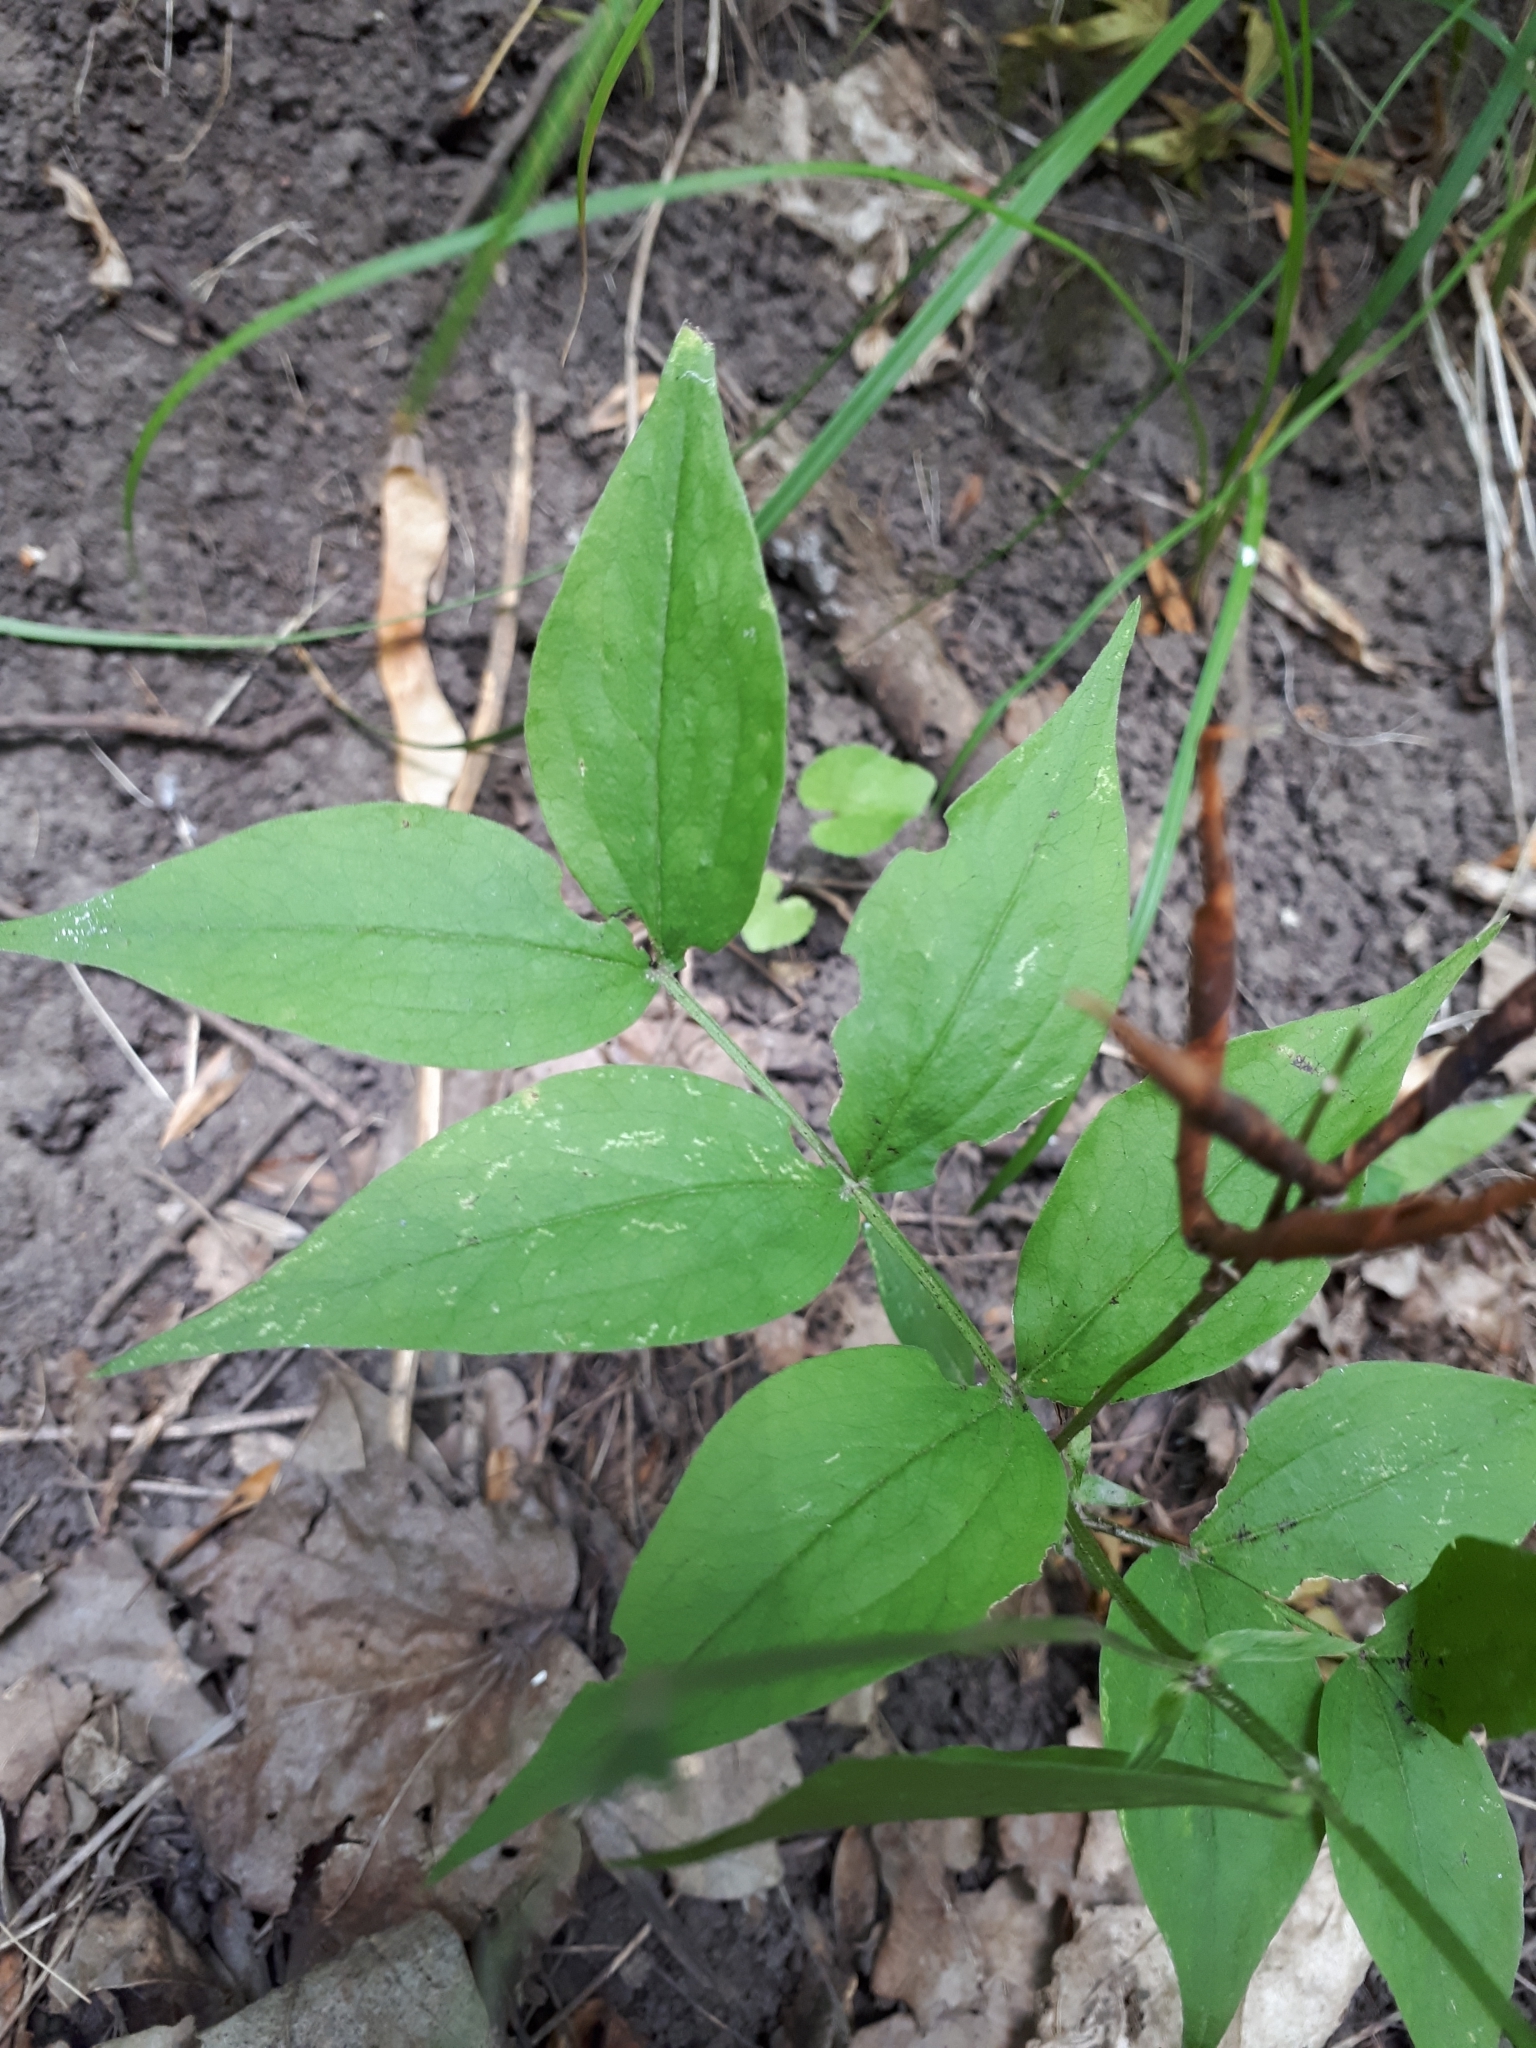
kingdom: Plantae
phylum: Tracheophyta
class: Magnoliopsida
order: Fabales
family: Fabaceae
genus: Lathyrus
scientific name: Lathyrus vernus
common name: Spring pea
